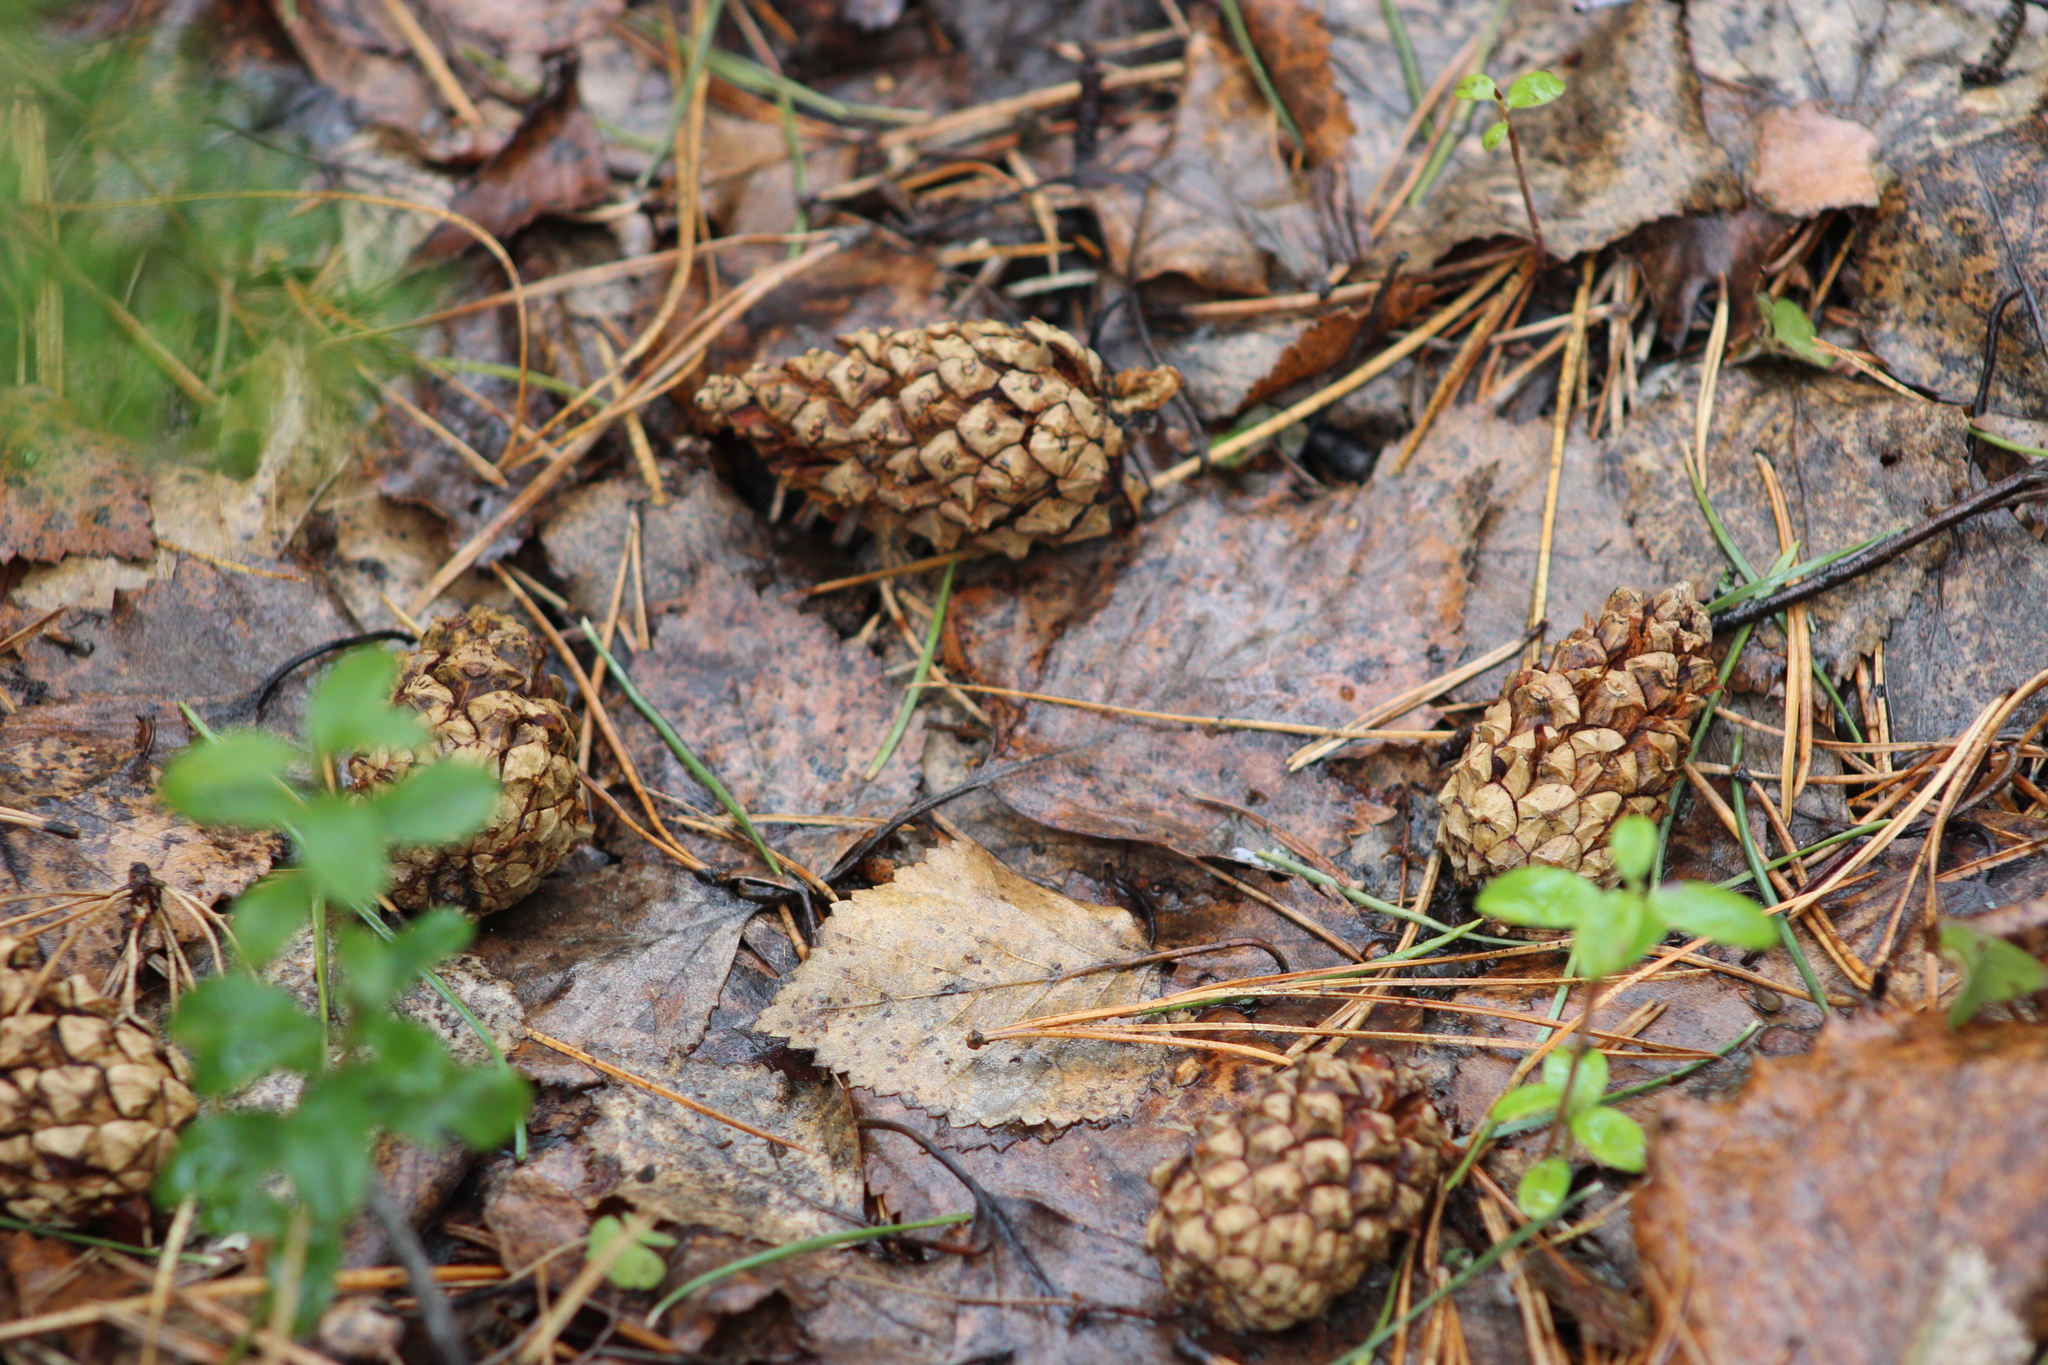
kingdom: Plantae
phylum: Tracheophyta
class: Pinopsida
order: Pinales
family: Pinaceae
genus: Pinus
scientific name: Pinus sylvestris
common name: Scots pine
